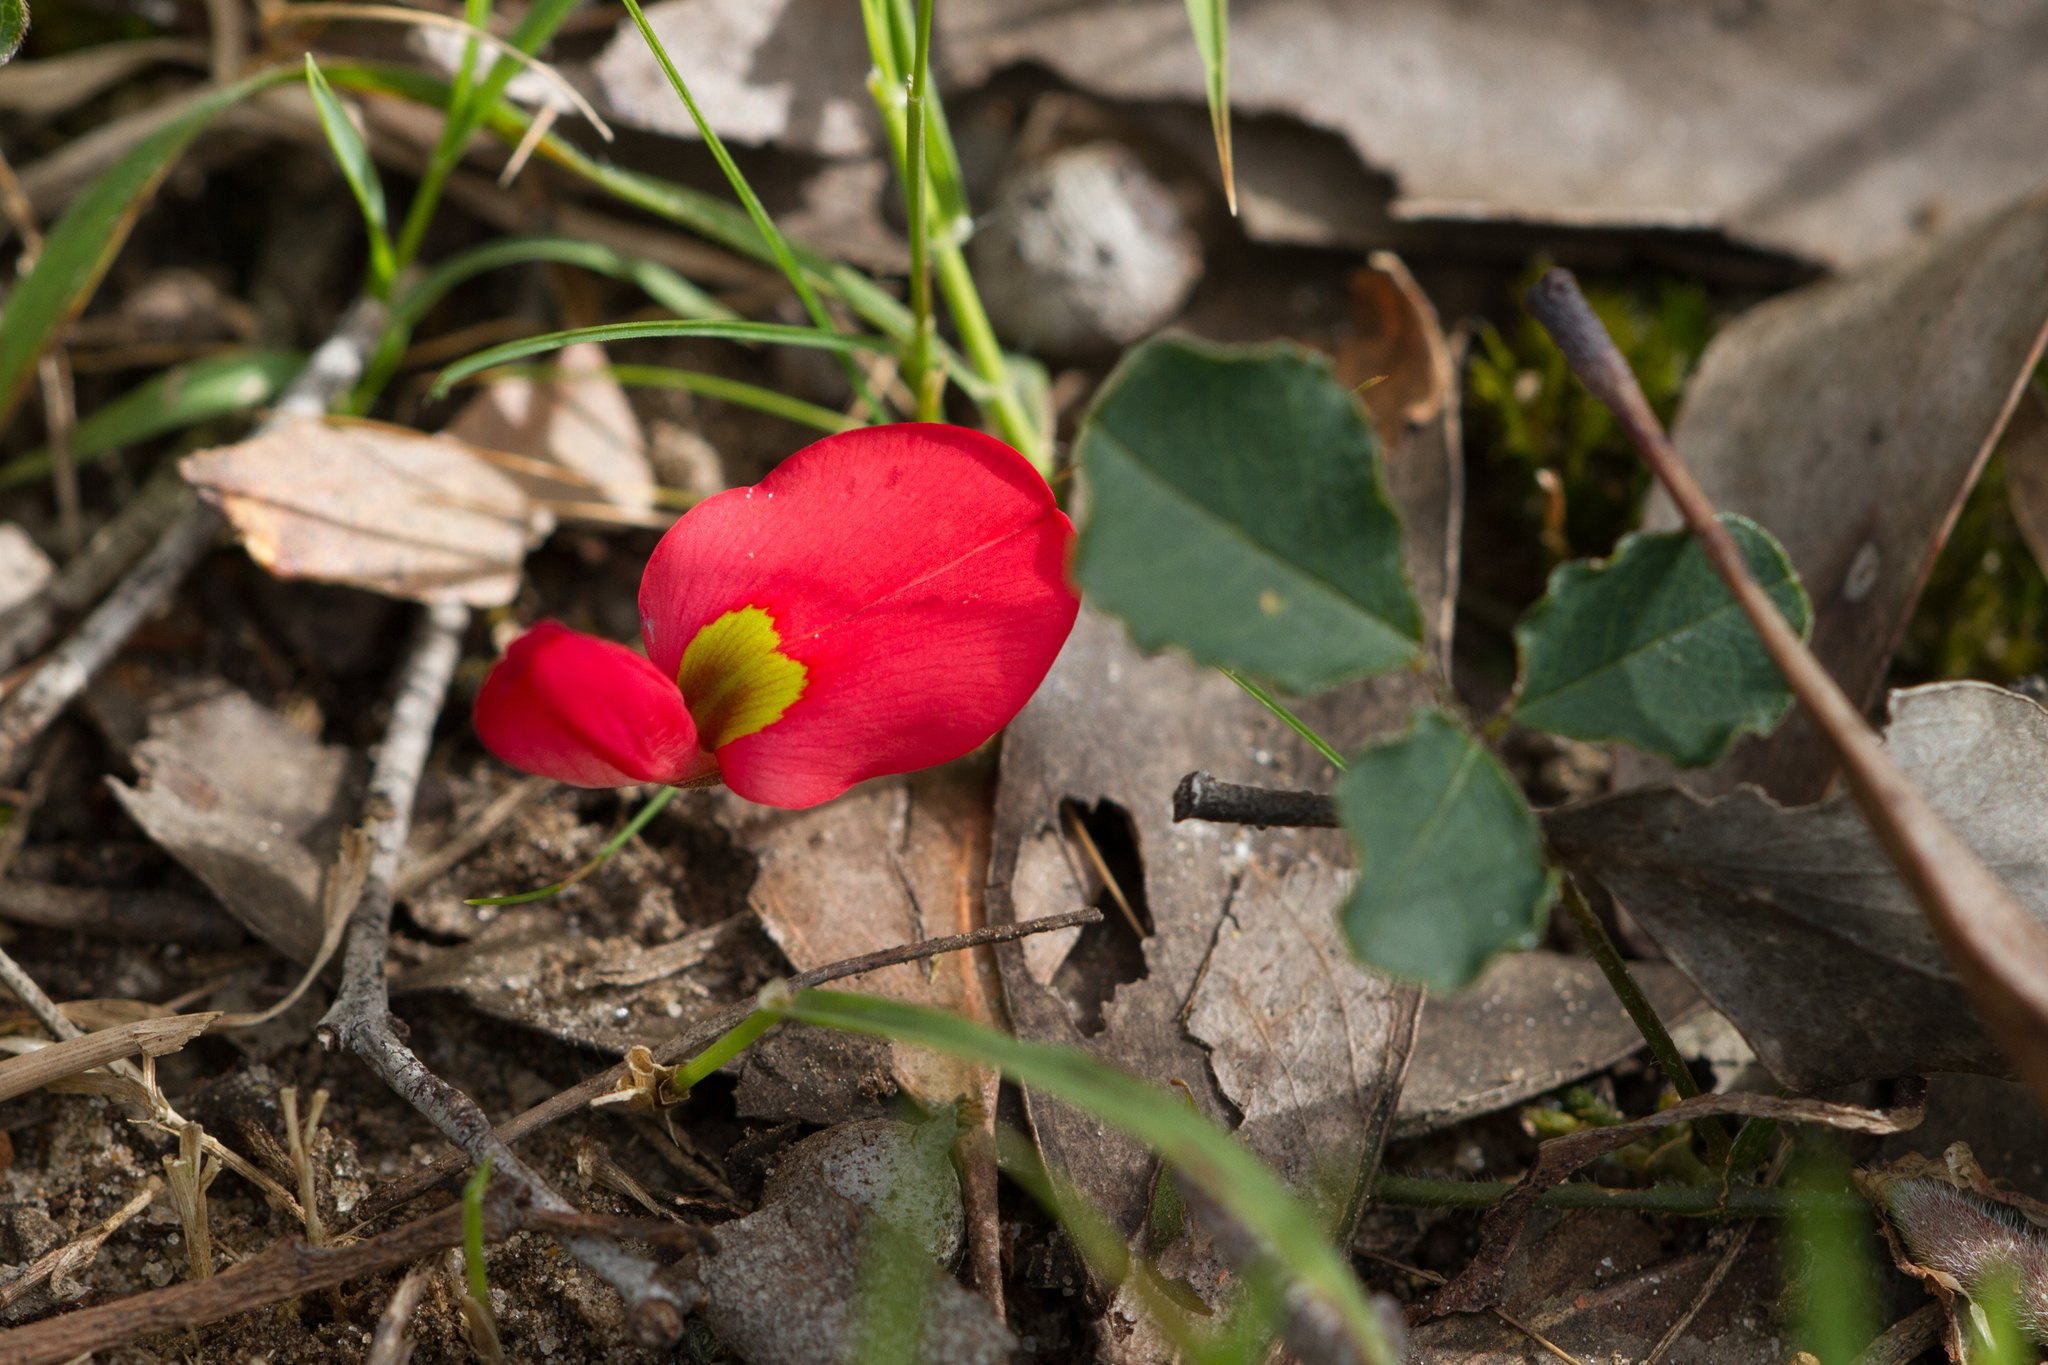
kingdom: Plantae
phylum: Tracheophyta
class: Magnoliopsida
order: Fabales
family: Fabaceae
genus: Kennedia
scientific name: Kennedia prostrata
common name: Running-postman
